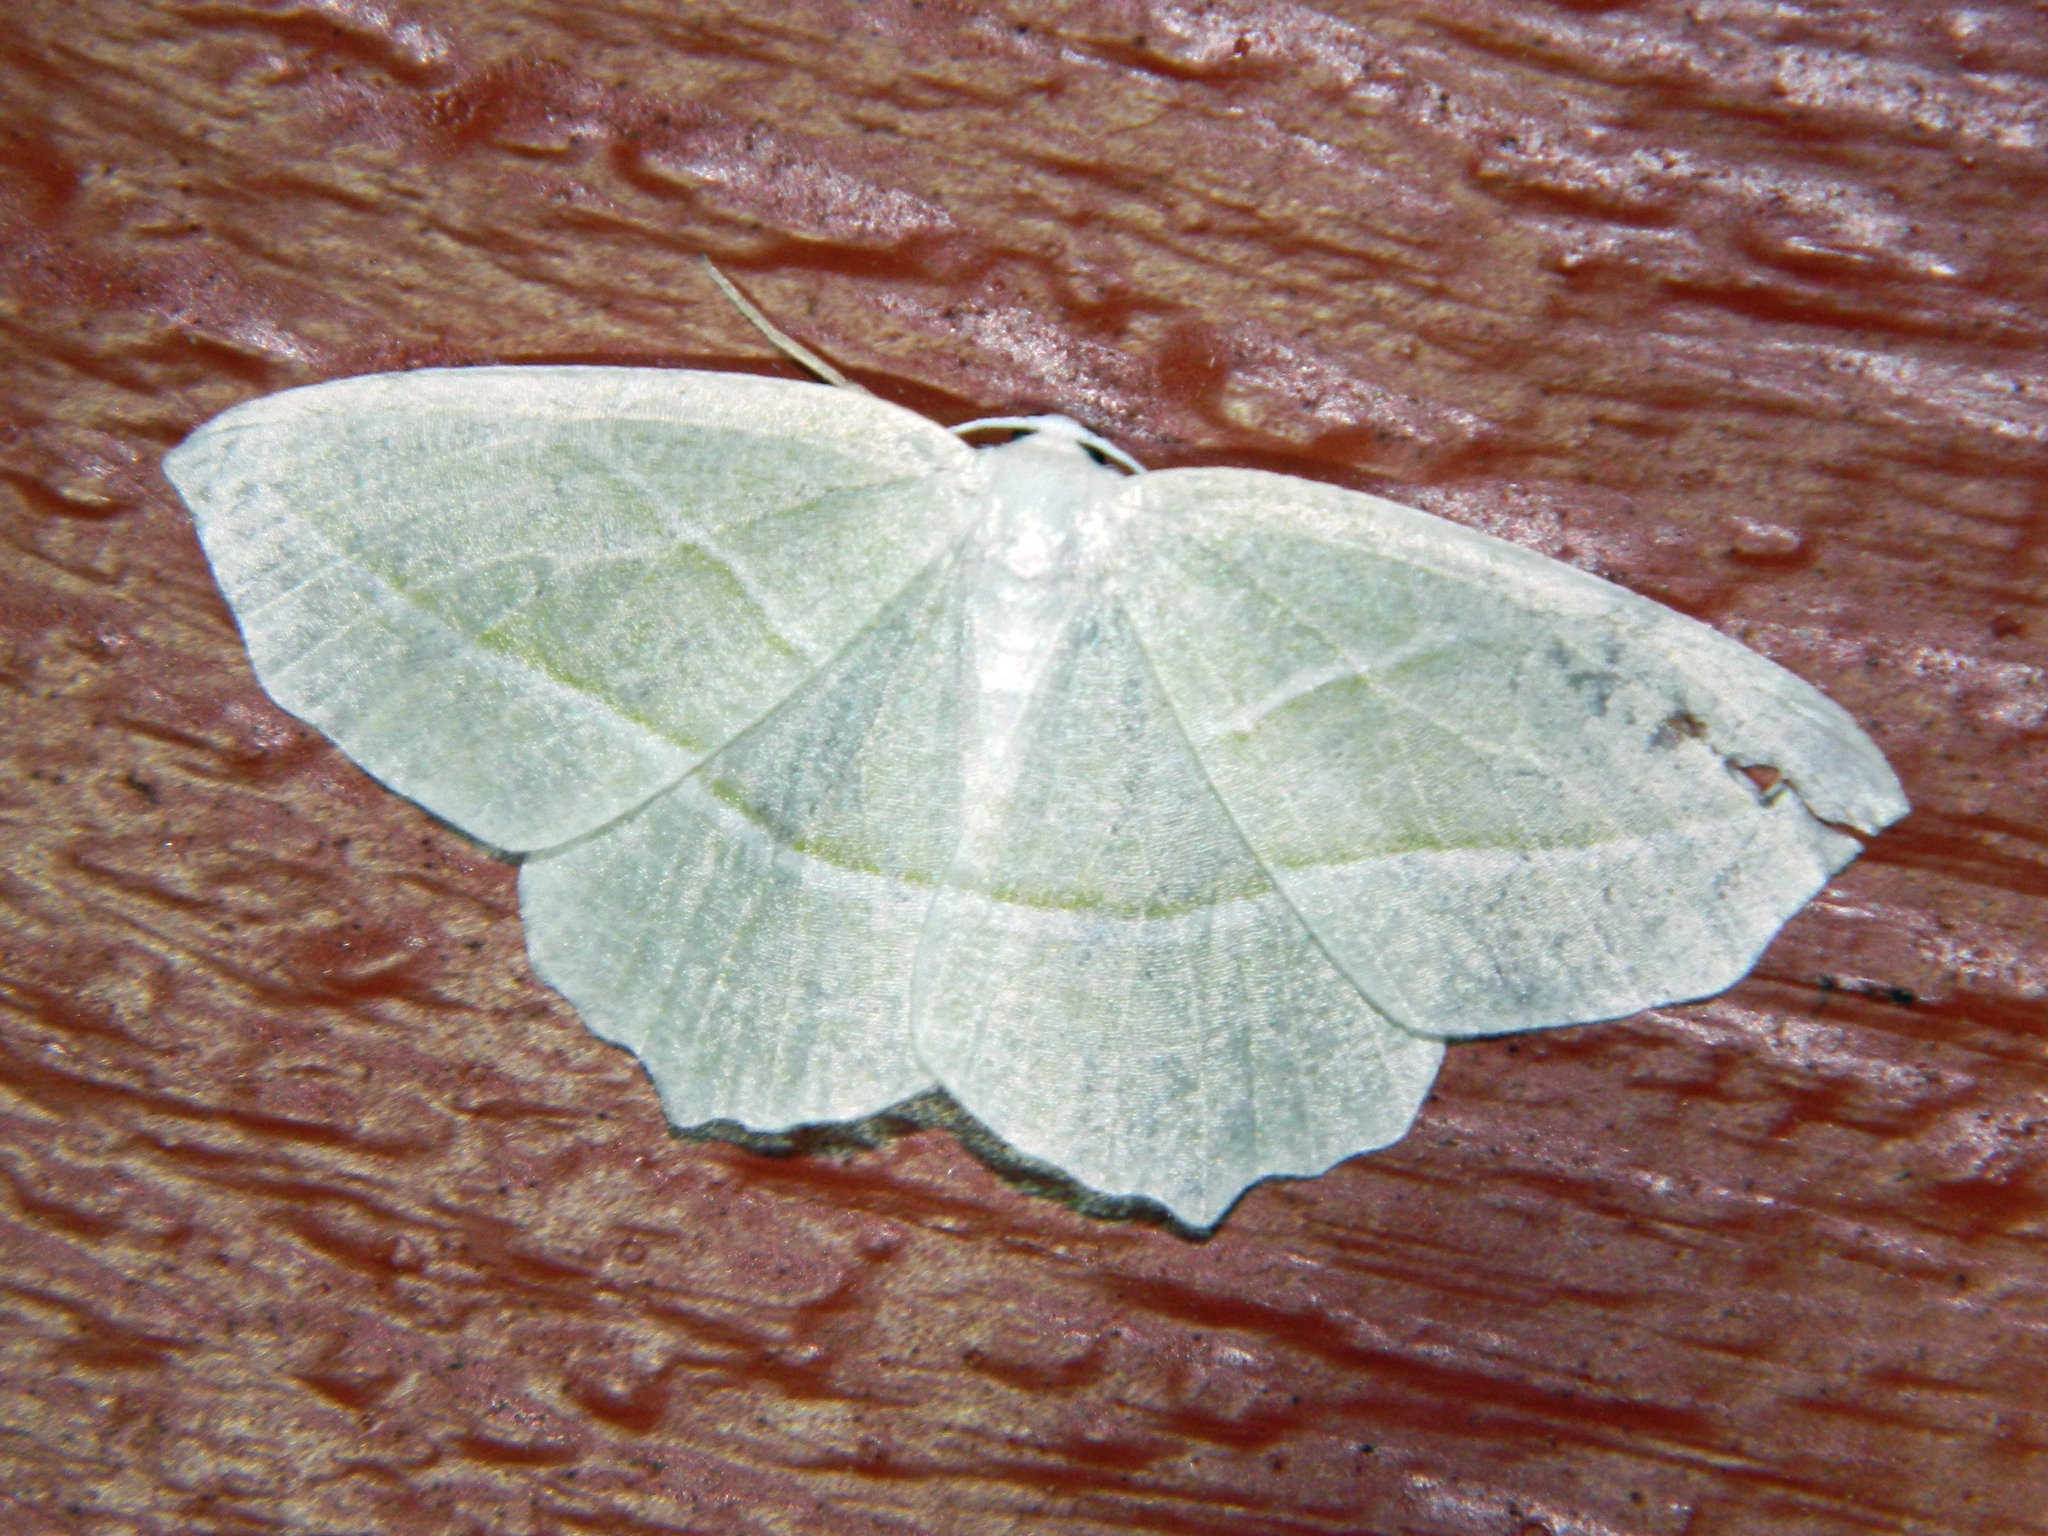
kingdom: Animalia
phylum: Arthropoda
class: Insecta
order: Lepidoptera
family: Geometridae
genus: Campaea
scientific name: Campaea perlata
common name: Fringed looper
